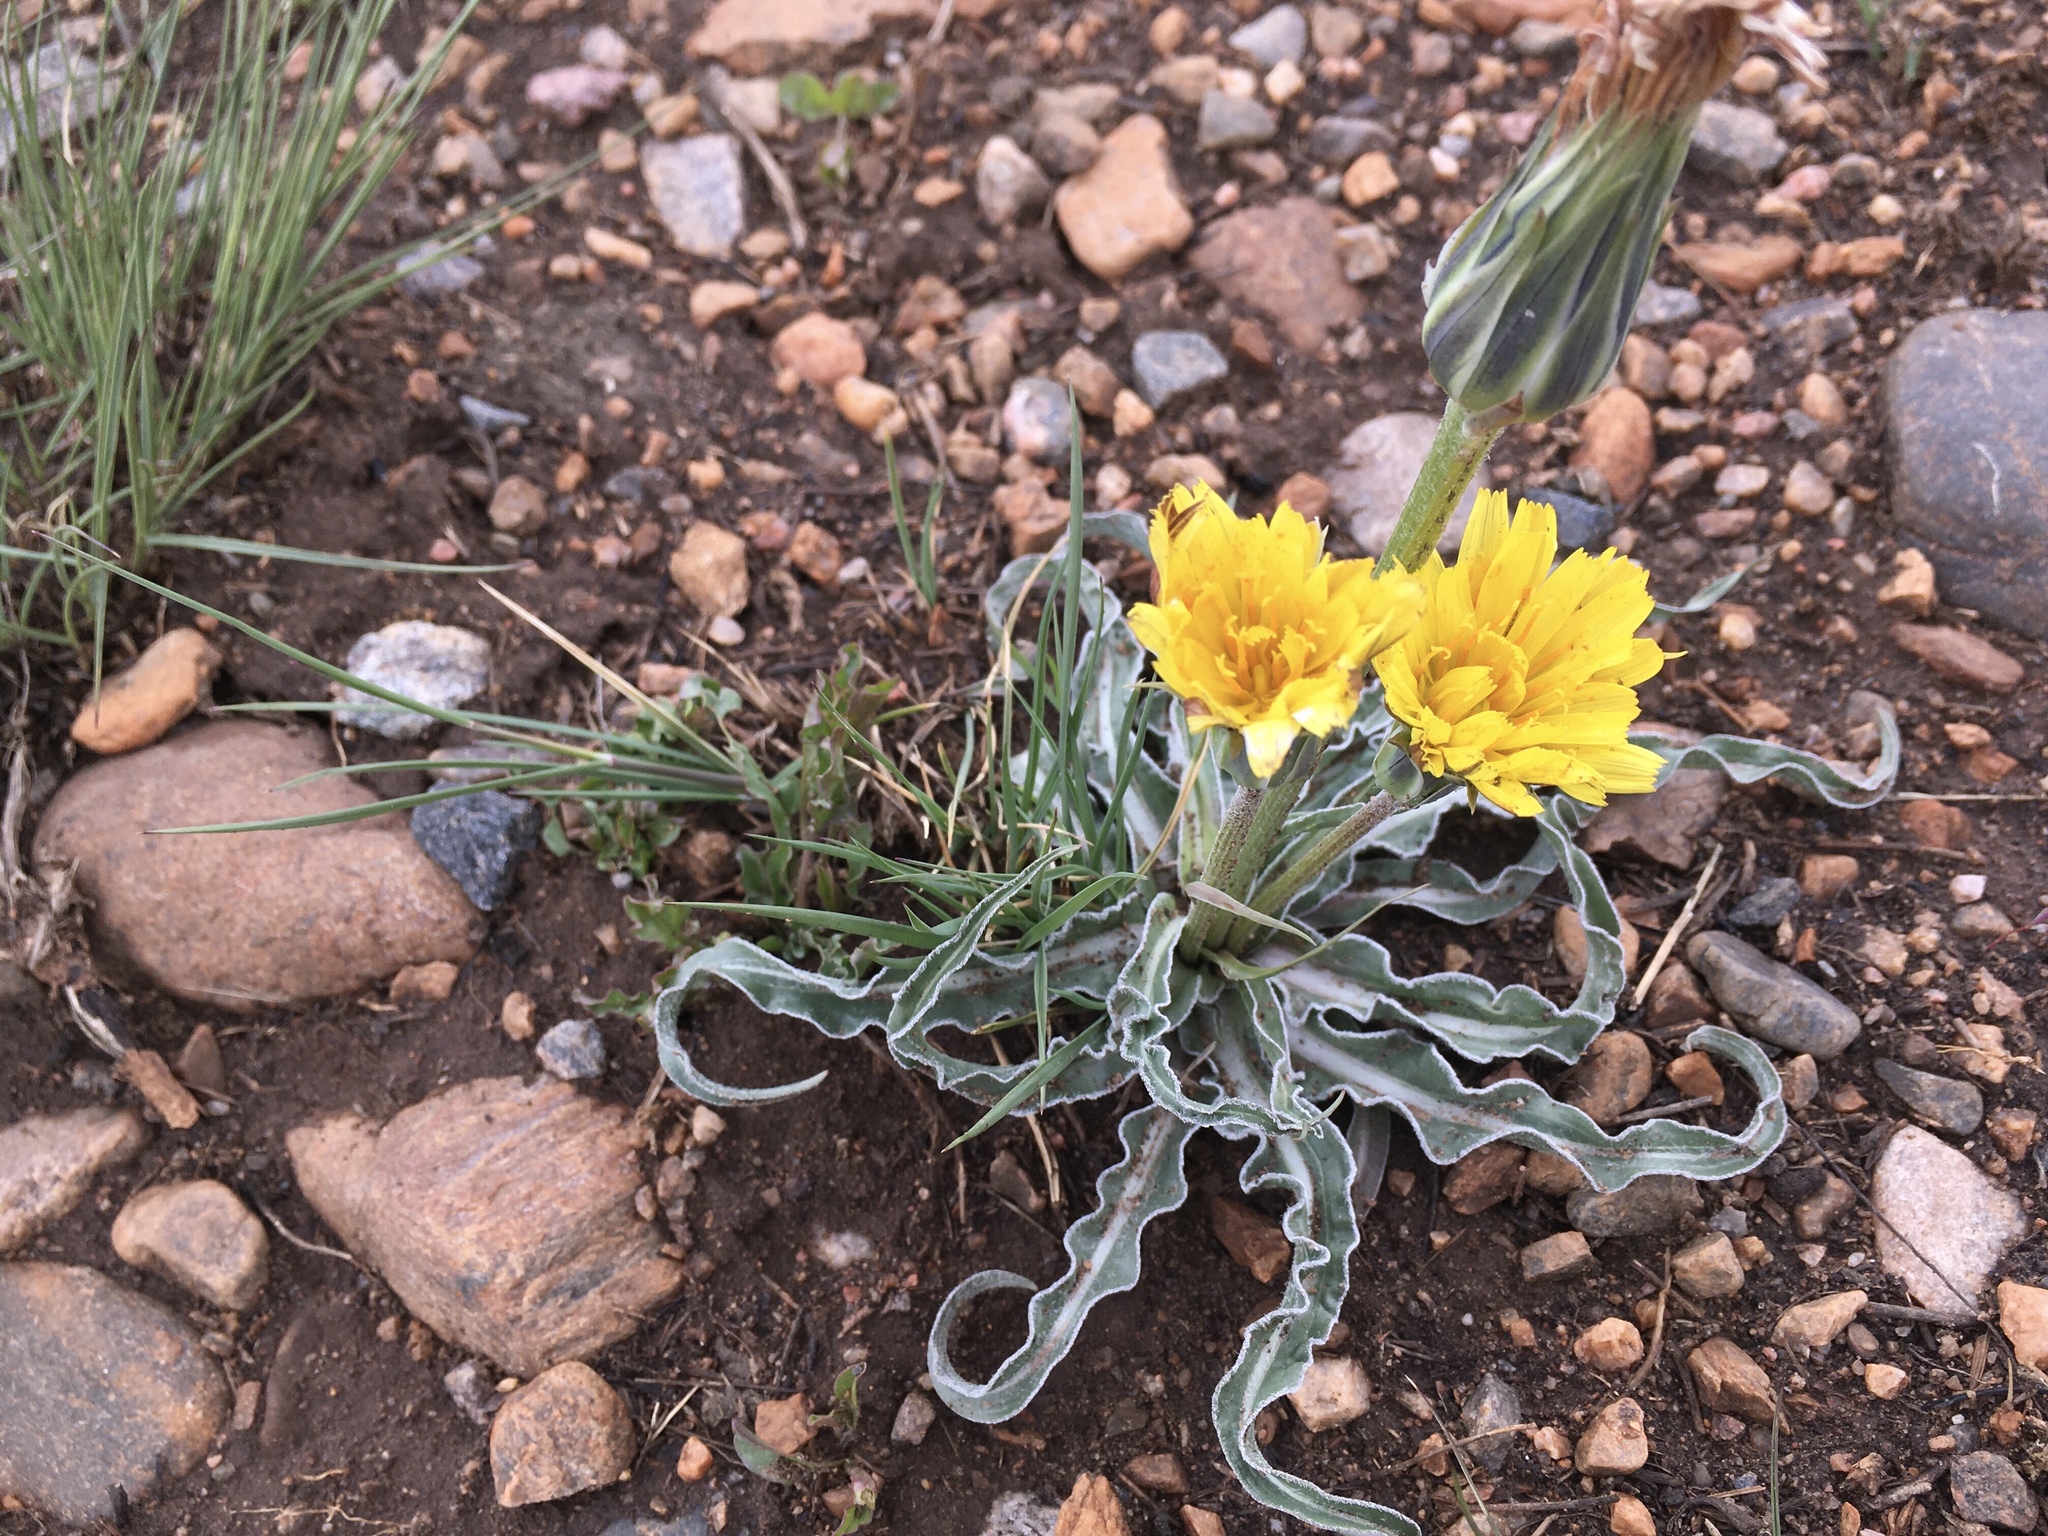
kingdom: Plantae
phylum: Tracheophyta
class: Magnoliopsida
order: Asterales
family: Asteraceae
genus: Microseris
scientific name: Microseris cuspidata
